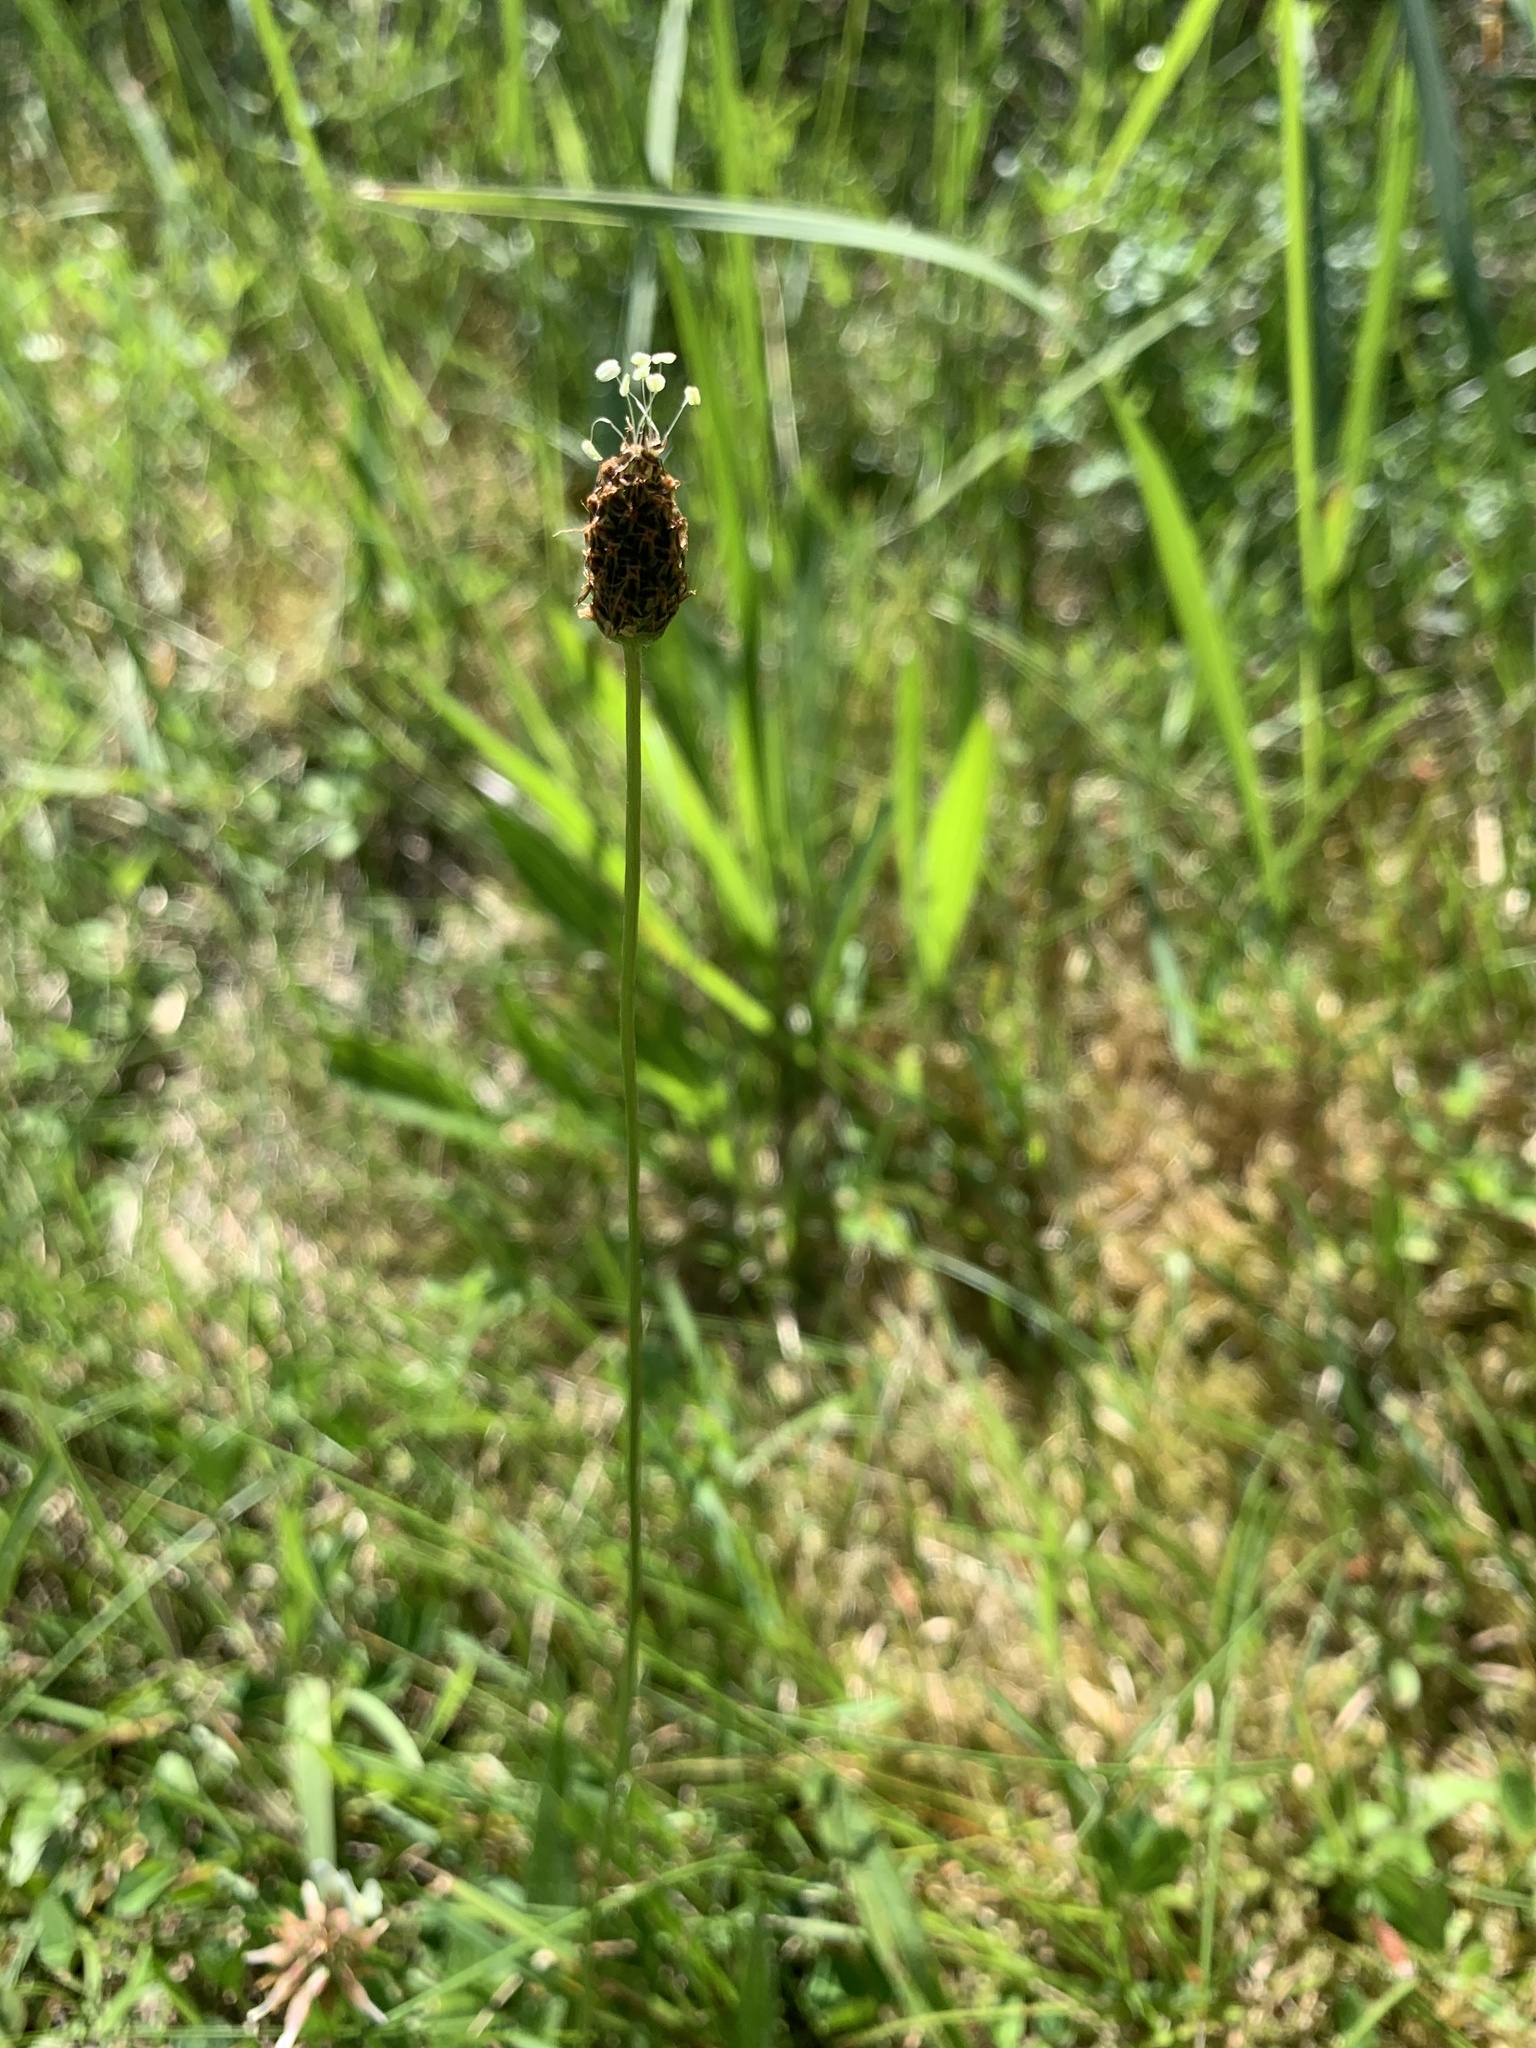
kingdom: Plantae
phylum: Tracheophyta
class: Magnoliopsida
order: Lamiales
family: Plantaginaceae
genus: Plantago
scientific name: Plantago lanceolata
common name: Ribwort plantain
